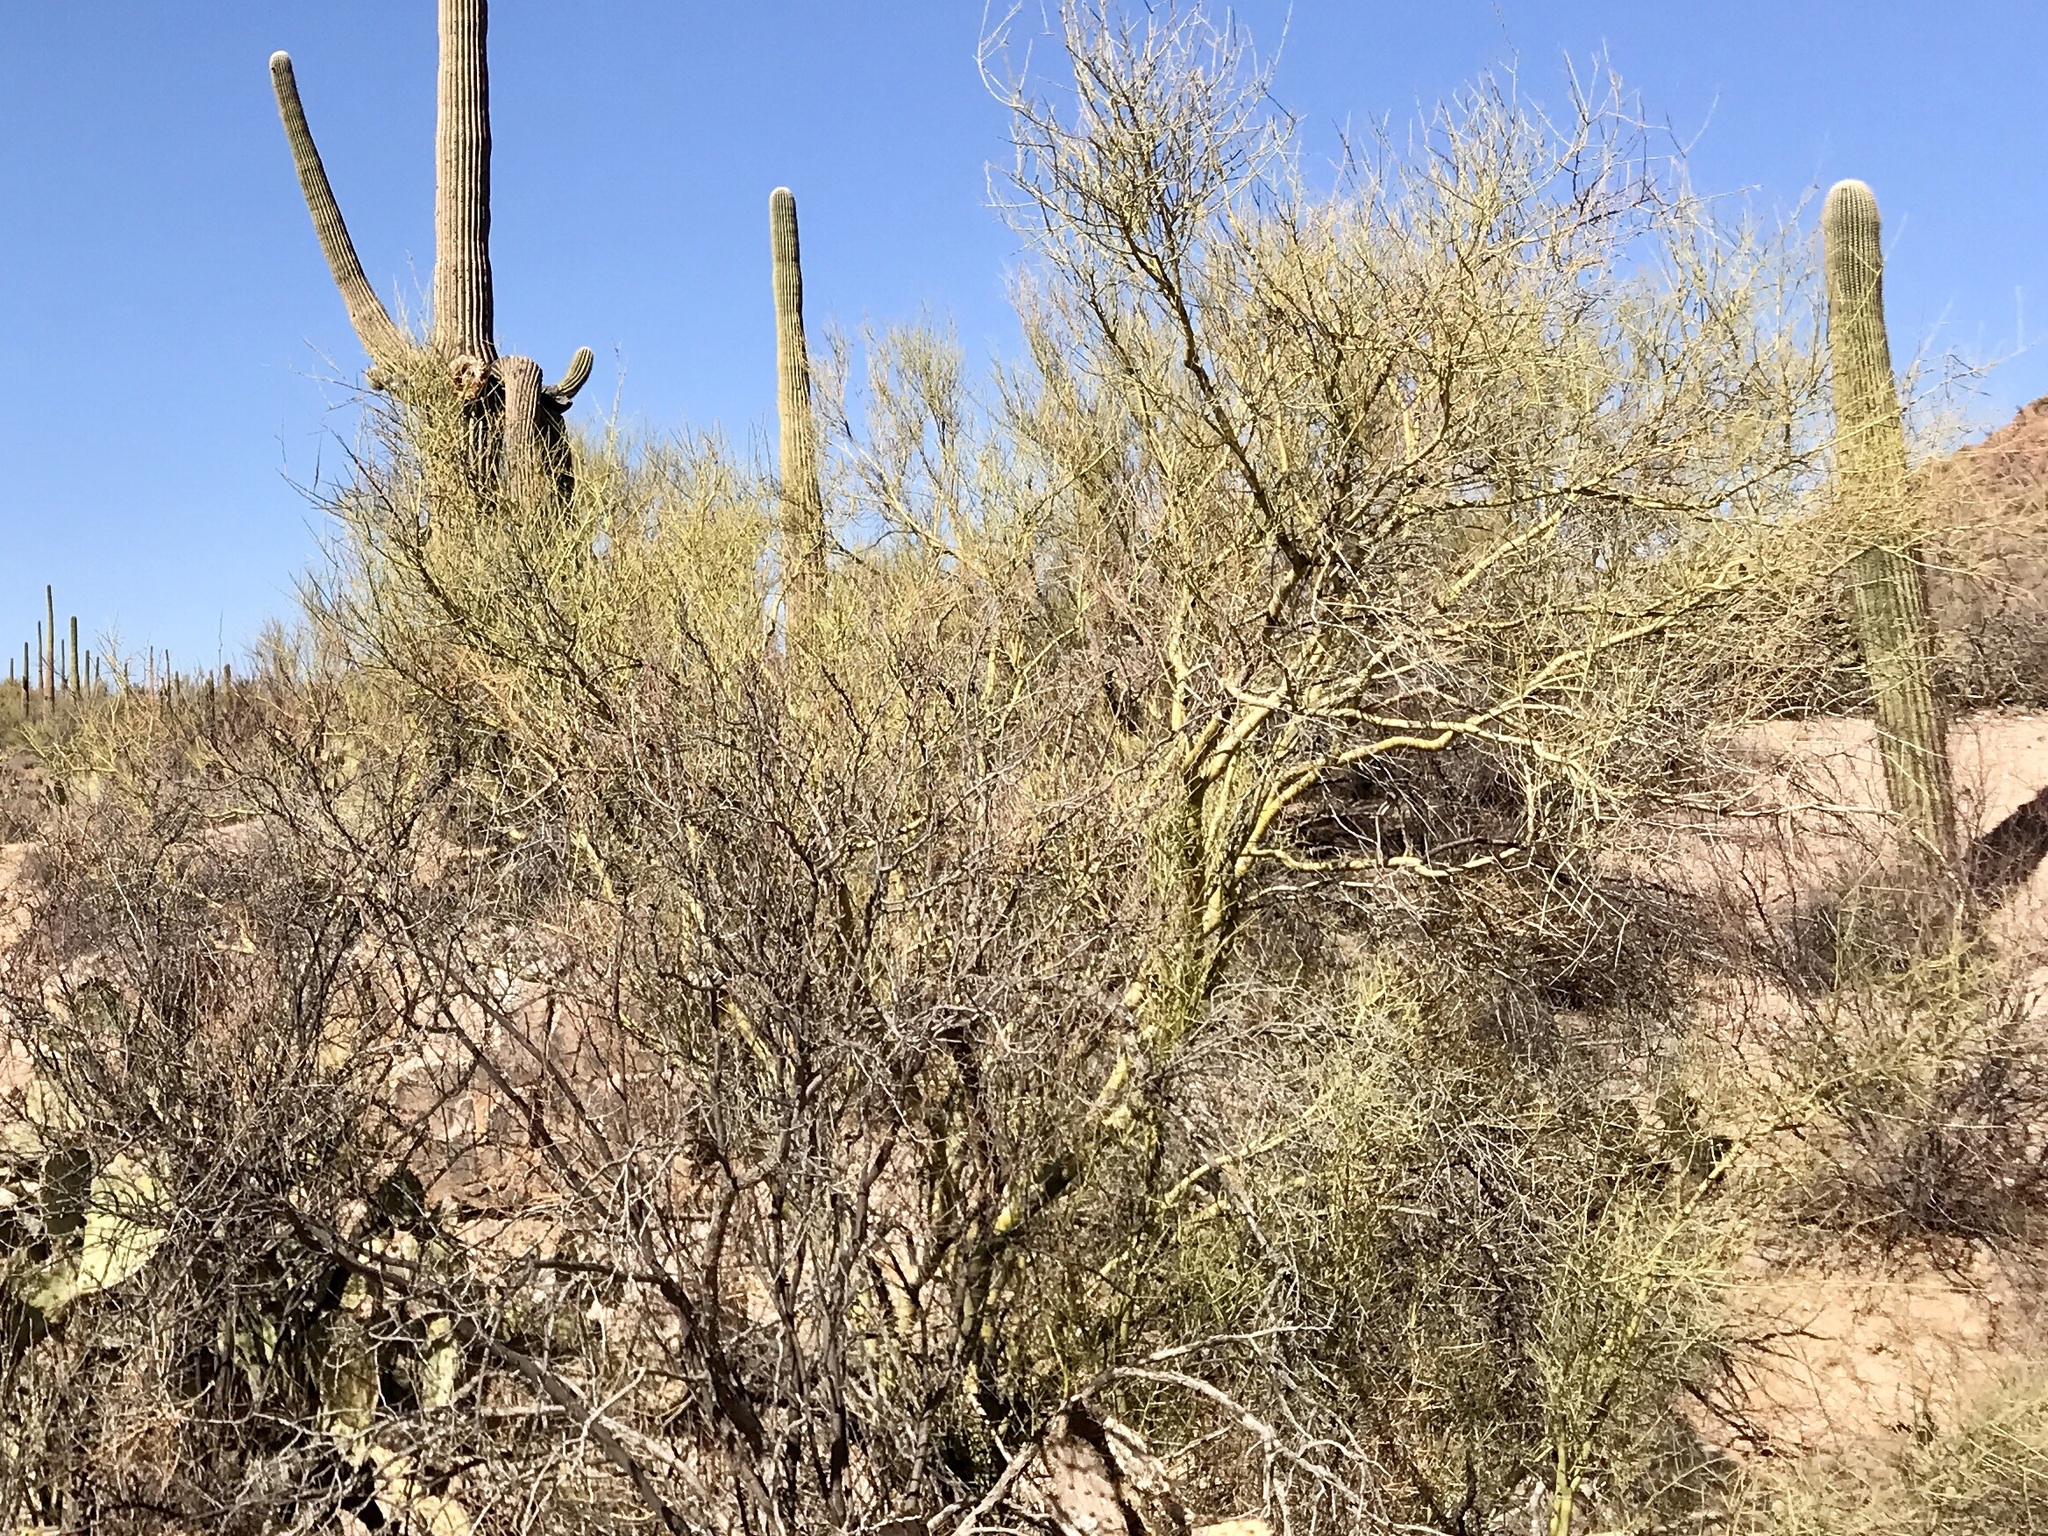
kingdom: Plantae
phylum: Tracheophyta
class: Magnoliopsida
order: Fabales
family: Fabaceae
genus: Parkinsonia
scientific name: Parkinsonia microphylla
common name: Yellow paloverde
